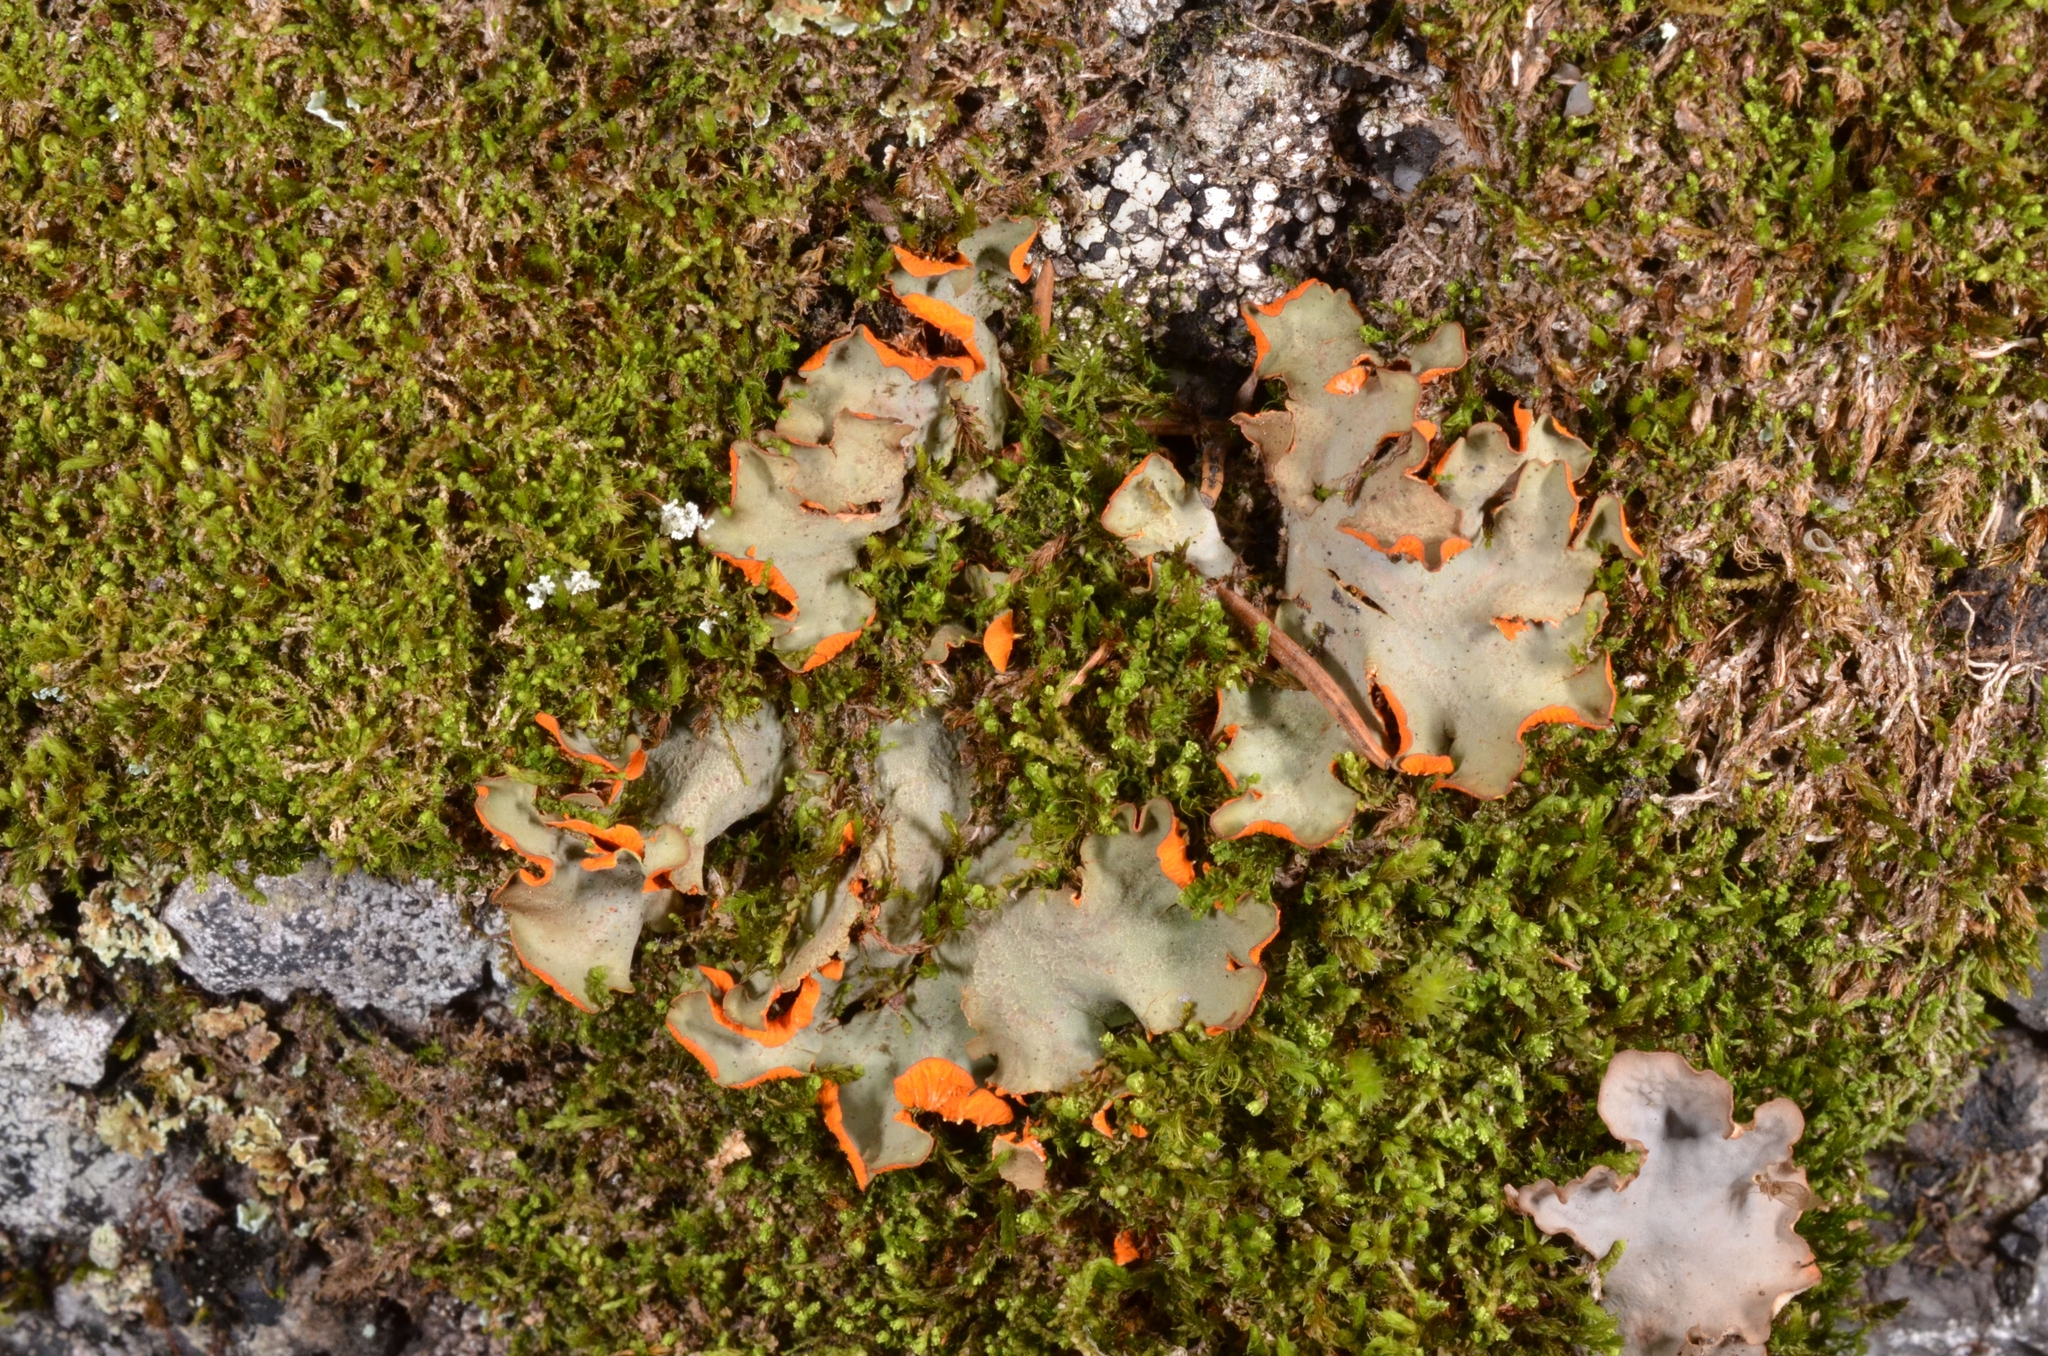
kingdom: Fungi
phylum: Ascomycota
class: Lecanoromycetes
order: Peltigerales
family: Peltigeraceae
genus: Solorina
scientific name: Solorina crocea
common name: Mountain saffron
